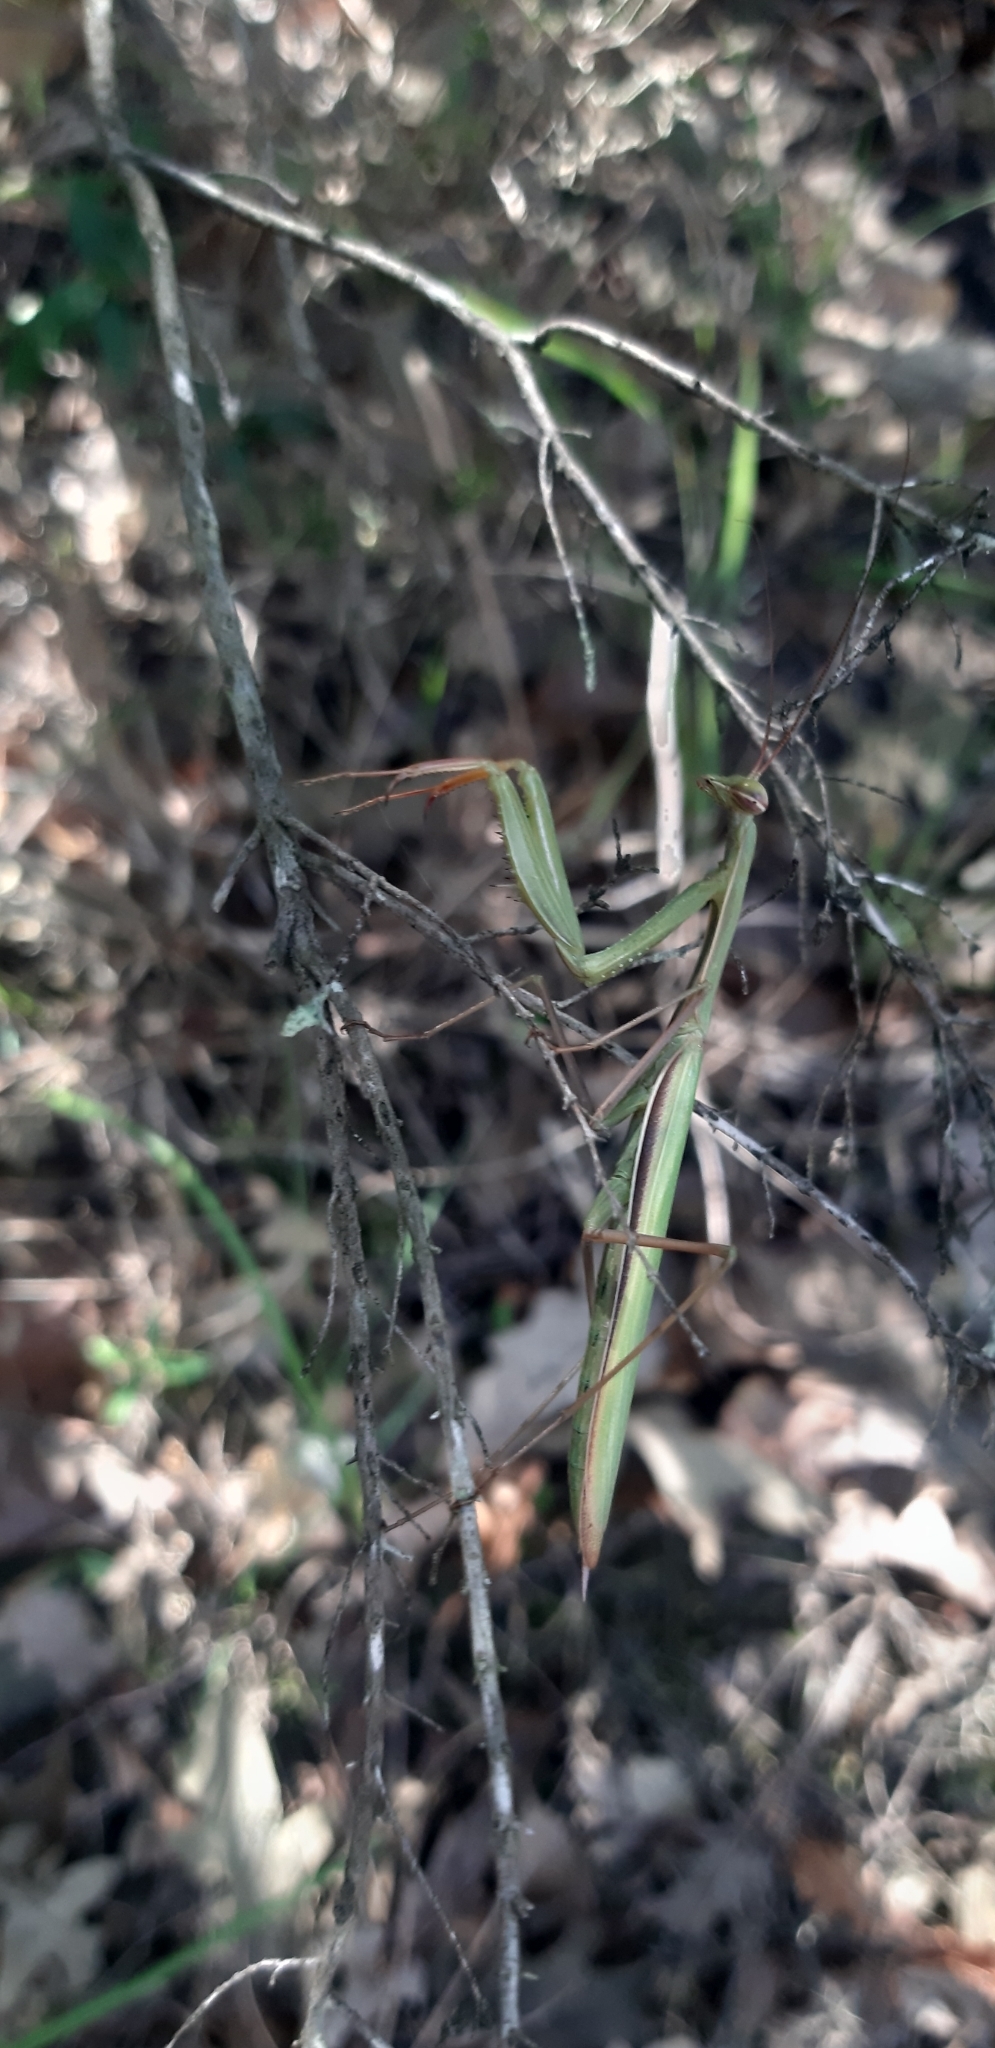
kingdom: Animalia
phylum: Arthropoda
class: Insecta
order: Mantodea
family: Mantidae
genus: Mantis
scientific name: Mantis religiosa
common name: Praying mantis
